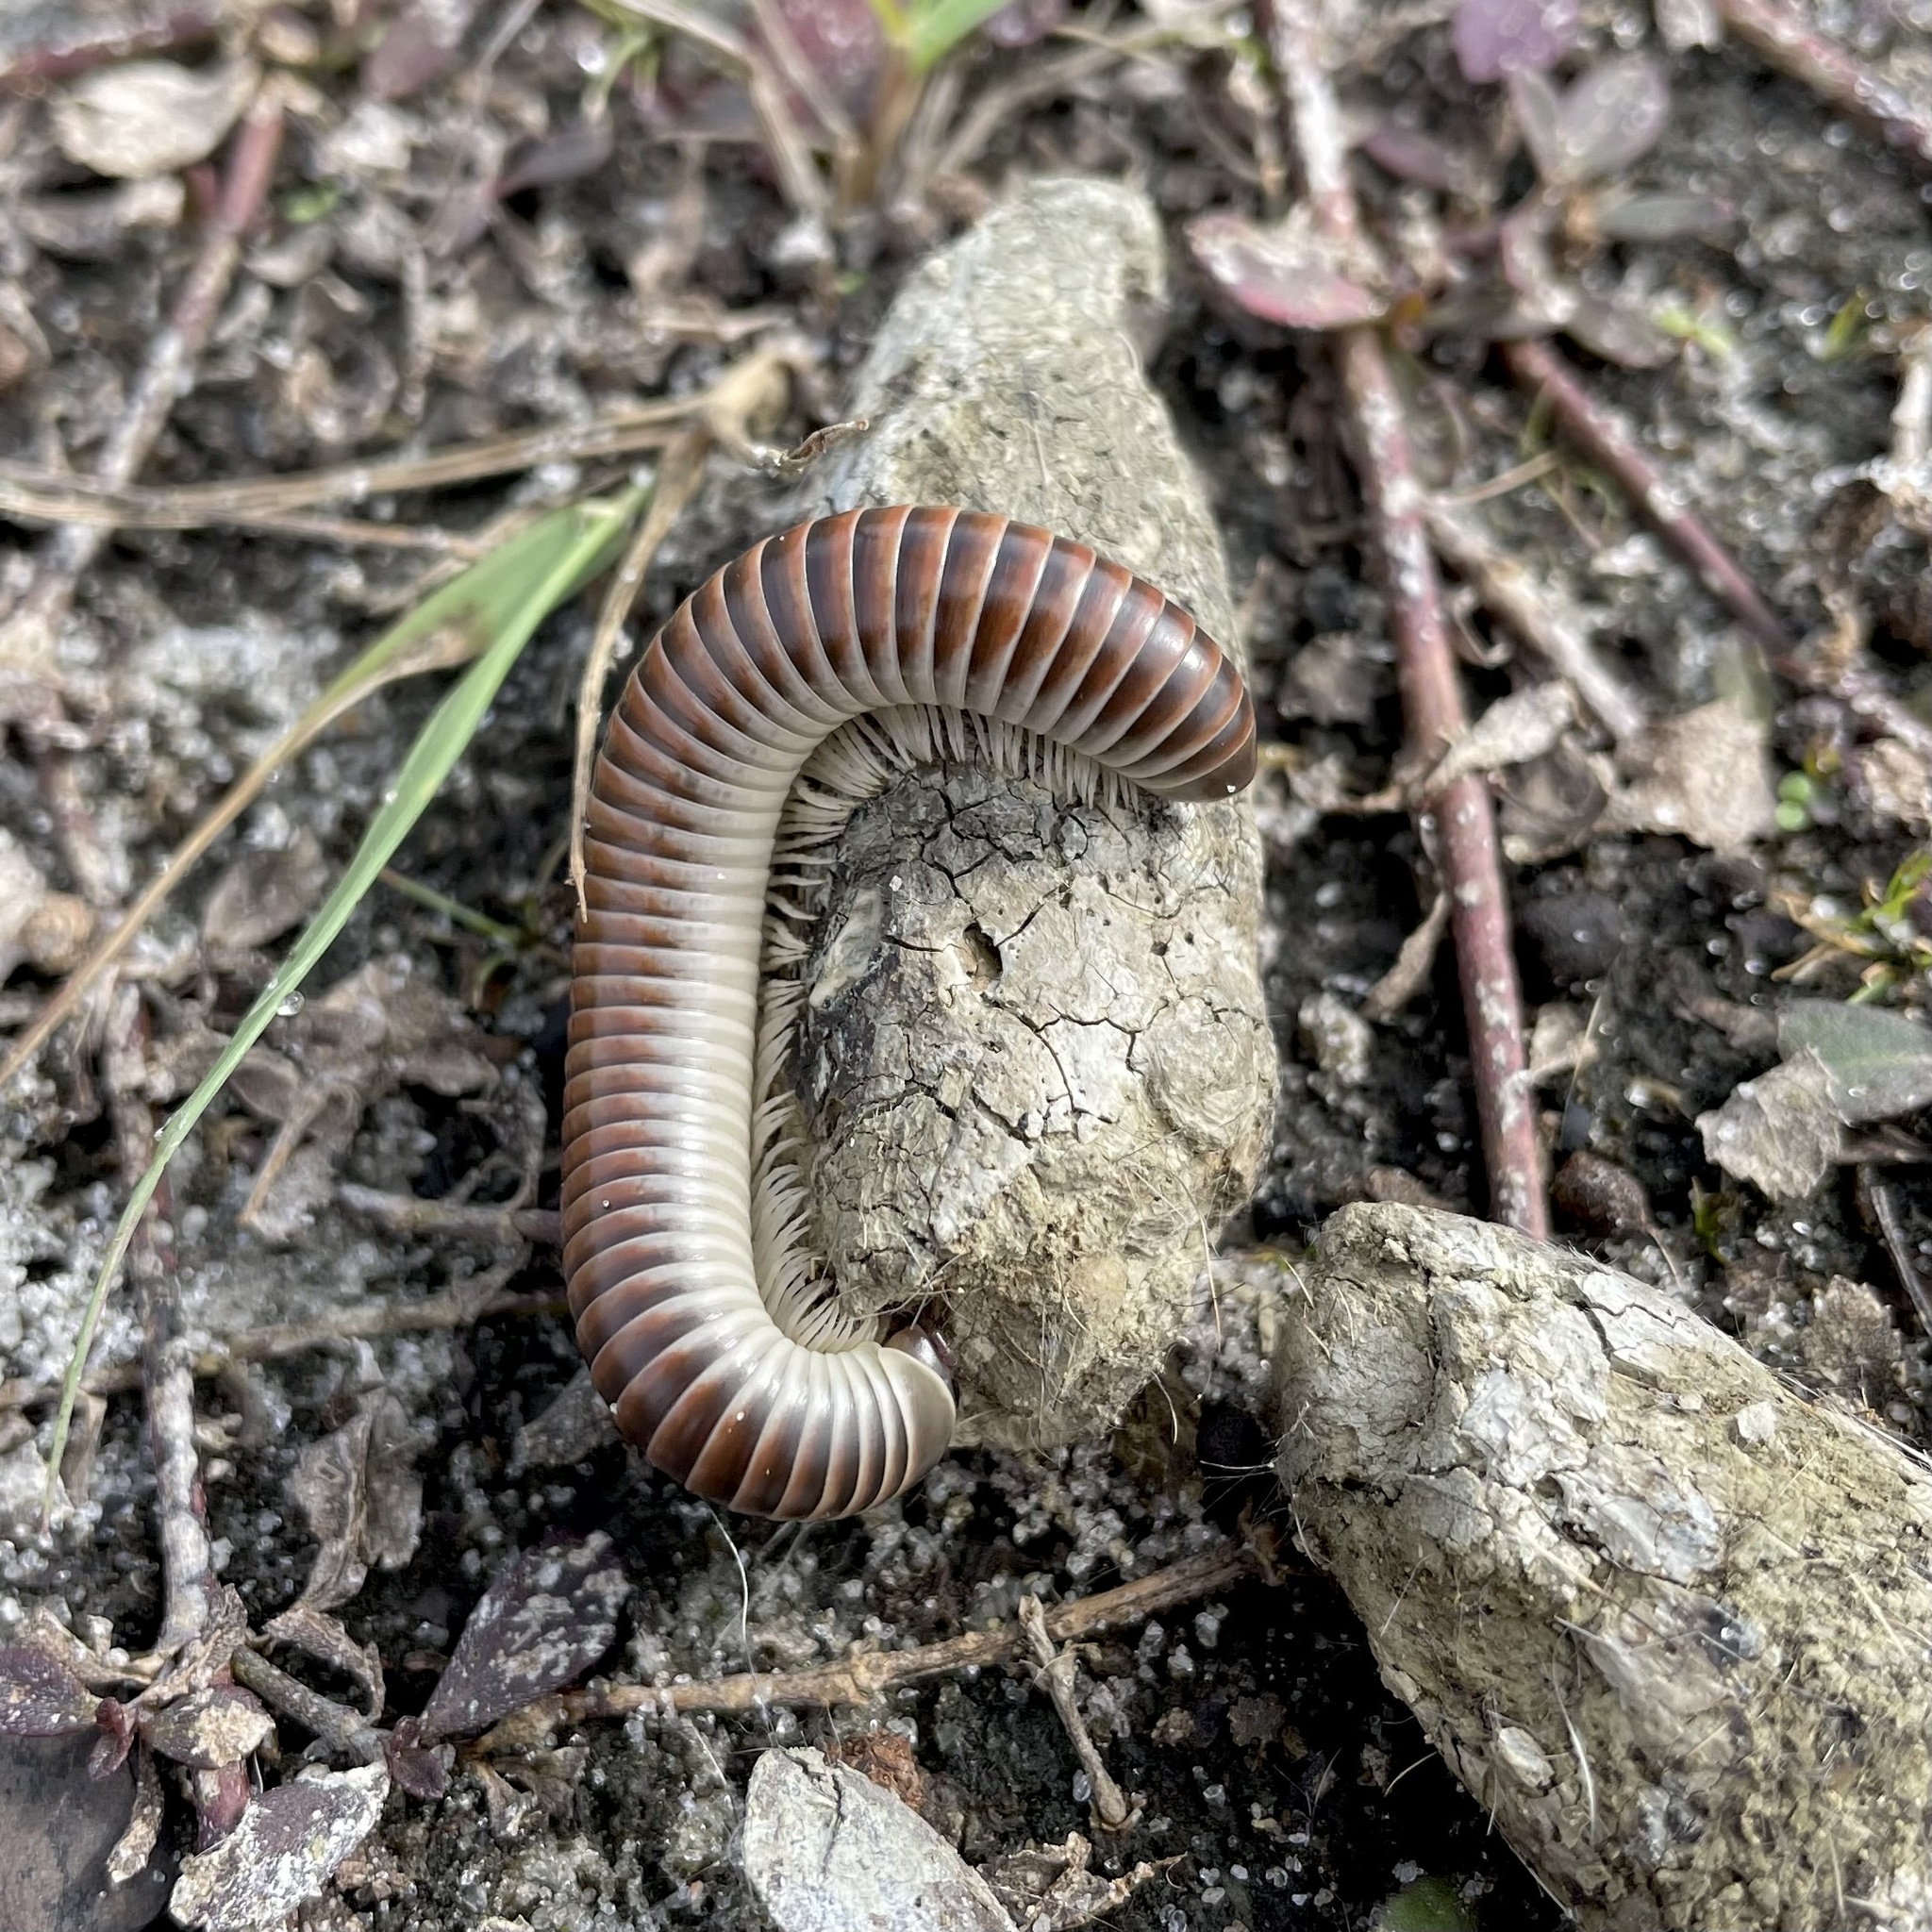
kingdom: Animalia
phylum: Arthropoda
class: Diplopoda
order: Spirobolida
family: Spirobolidae
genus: Chicobolus
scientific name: Chicobolus spinigerus
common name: Florida ivory millipede
